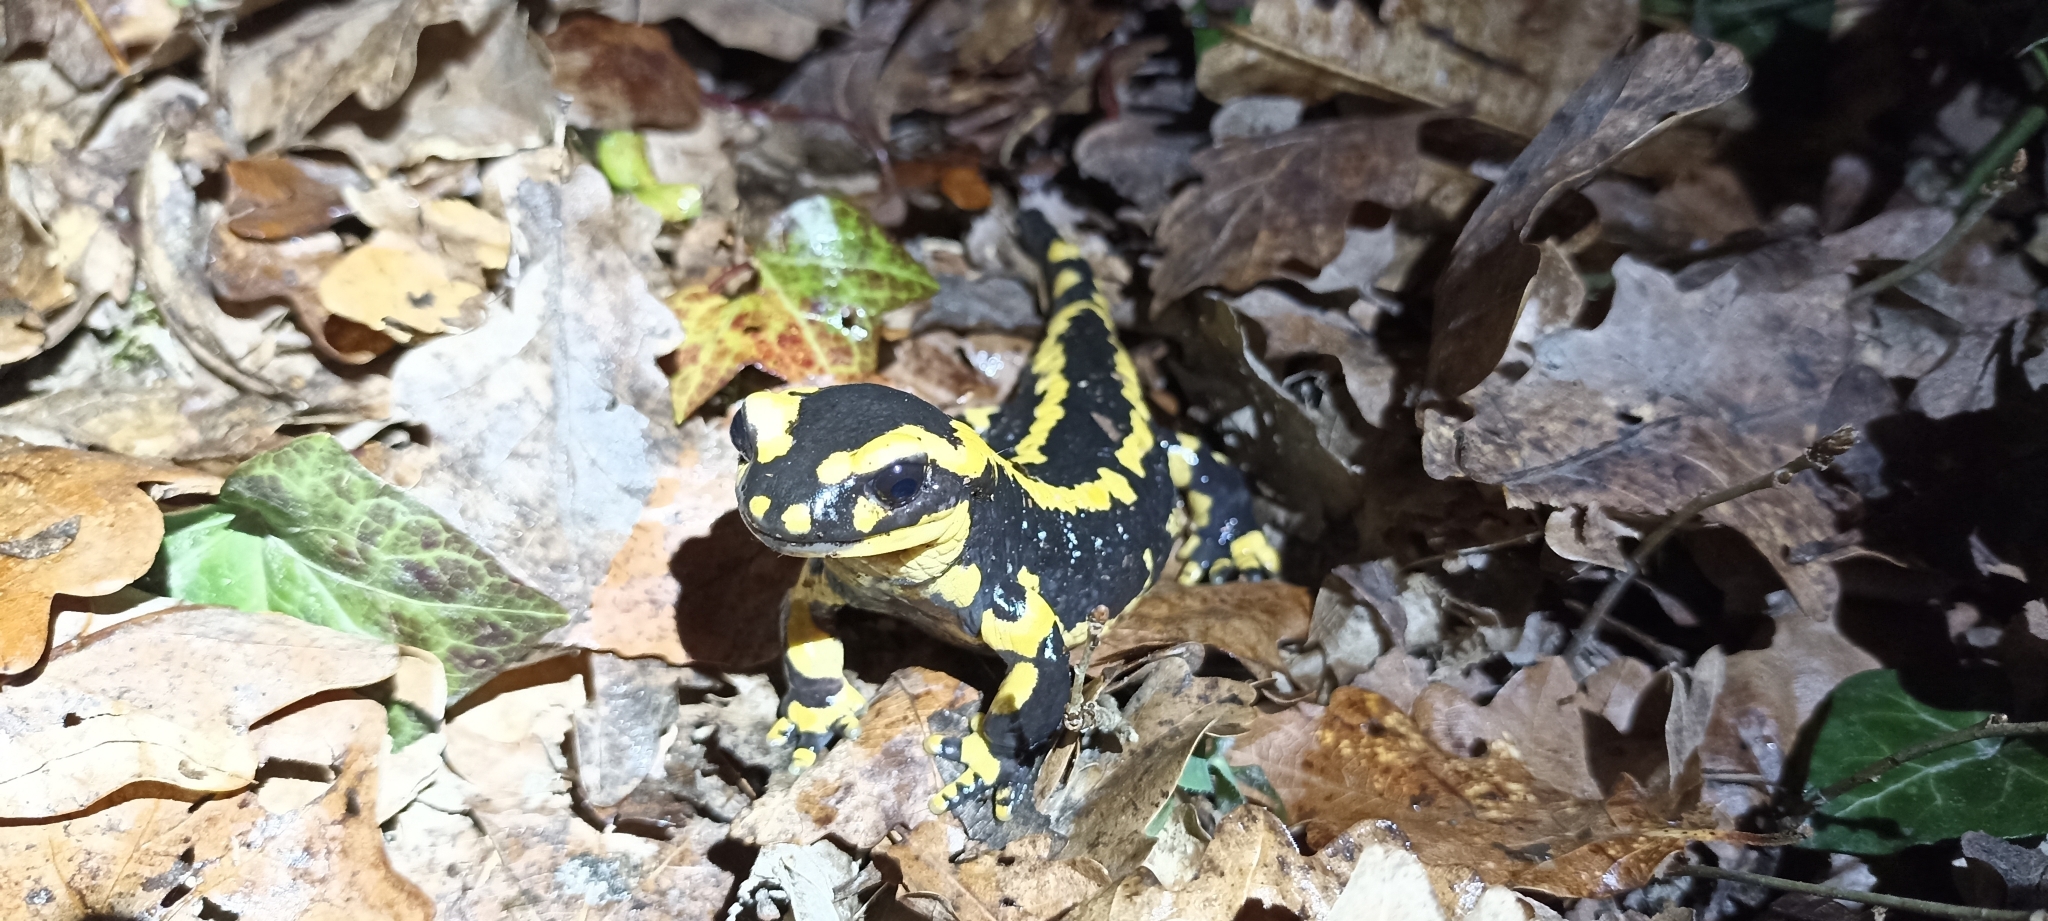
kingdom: Animalia
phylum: Chordata
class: Amphibia
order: Caudata
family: Salamandridae
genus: Salamandra
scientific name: Salamandra salamandra
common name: Fire salamander
